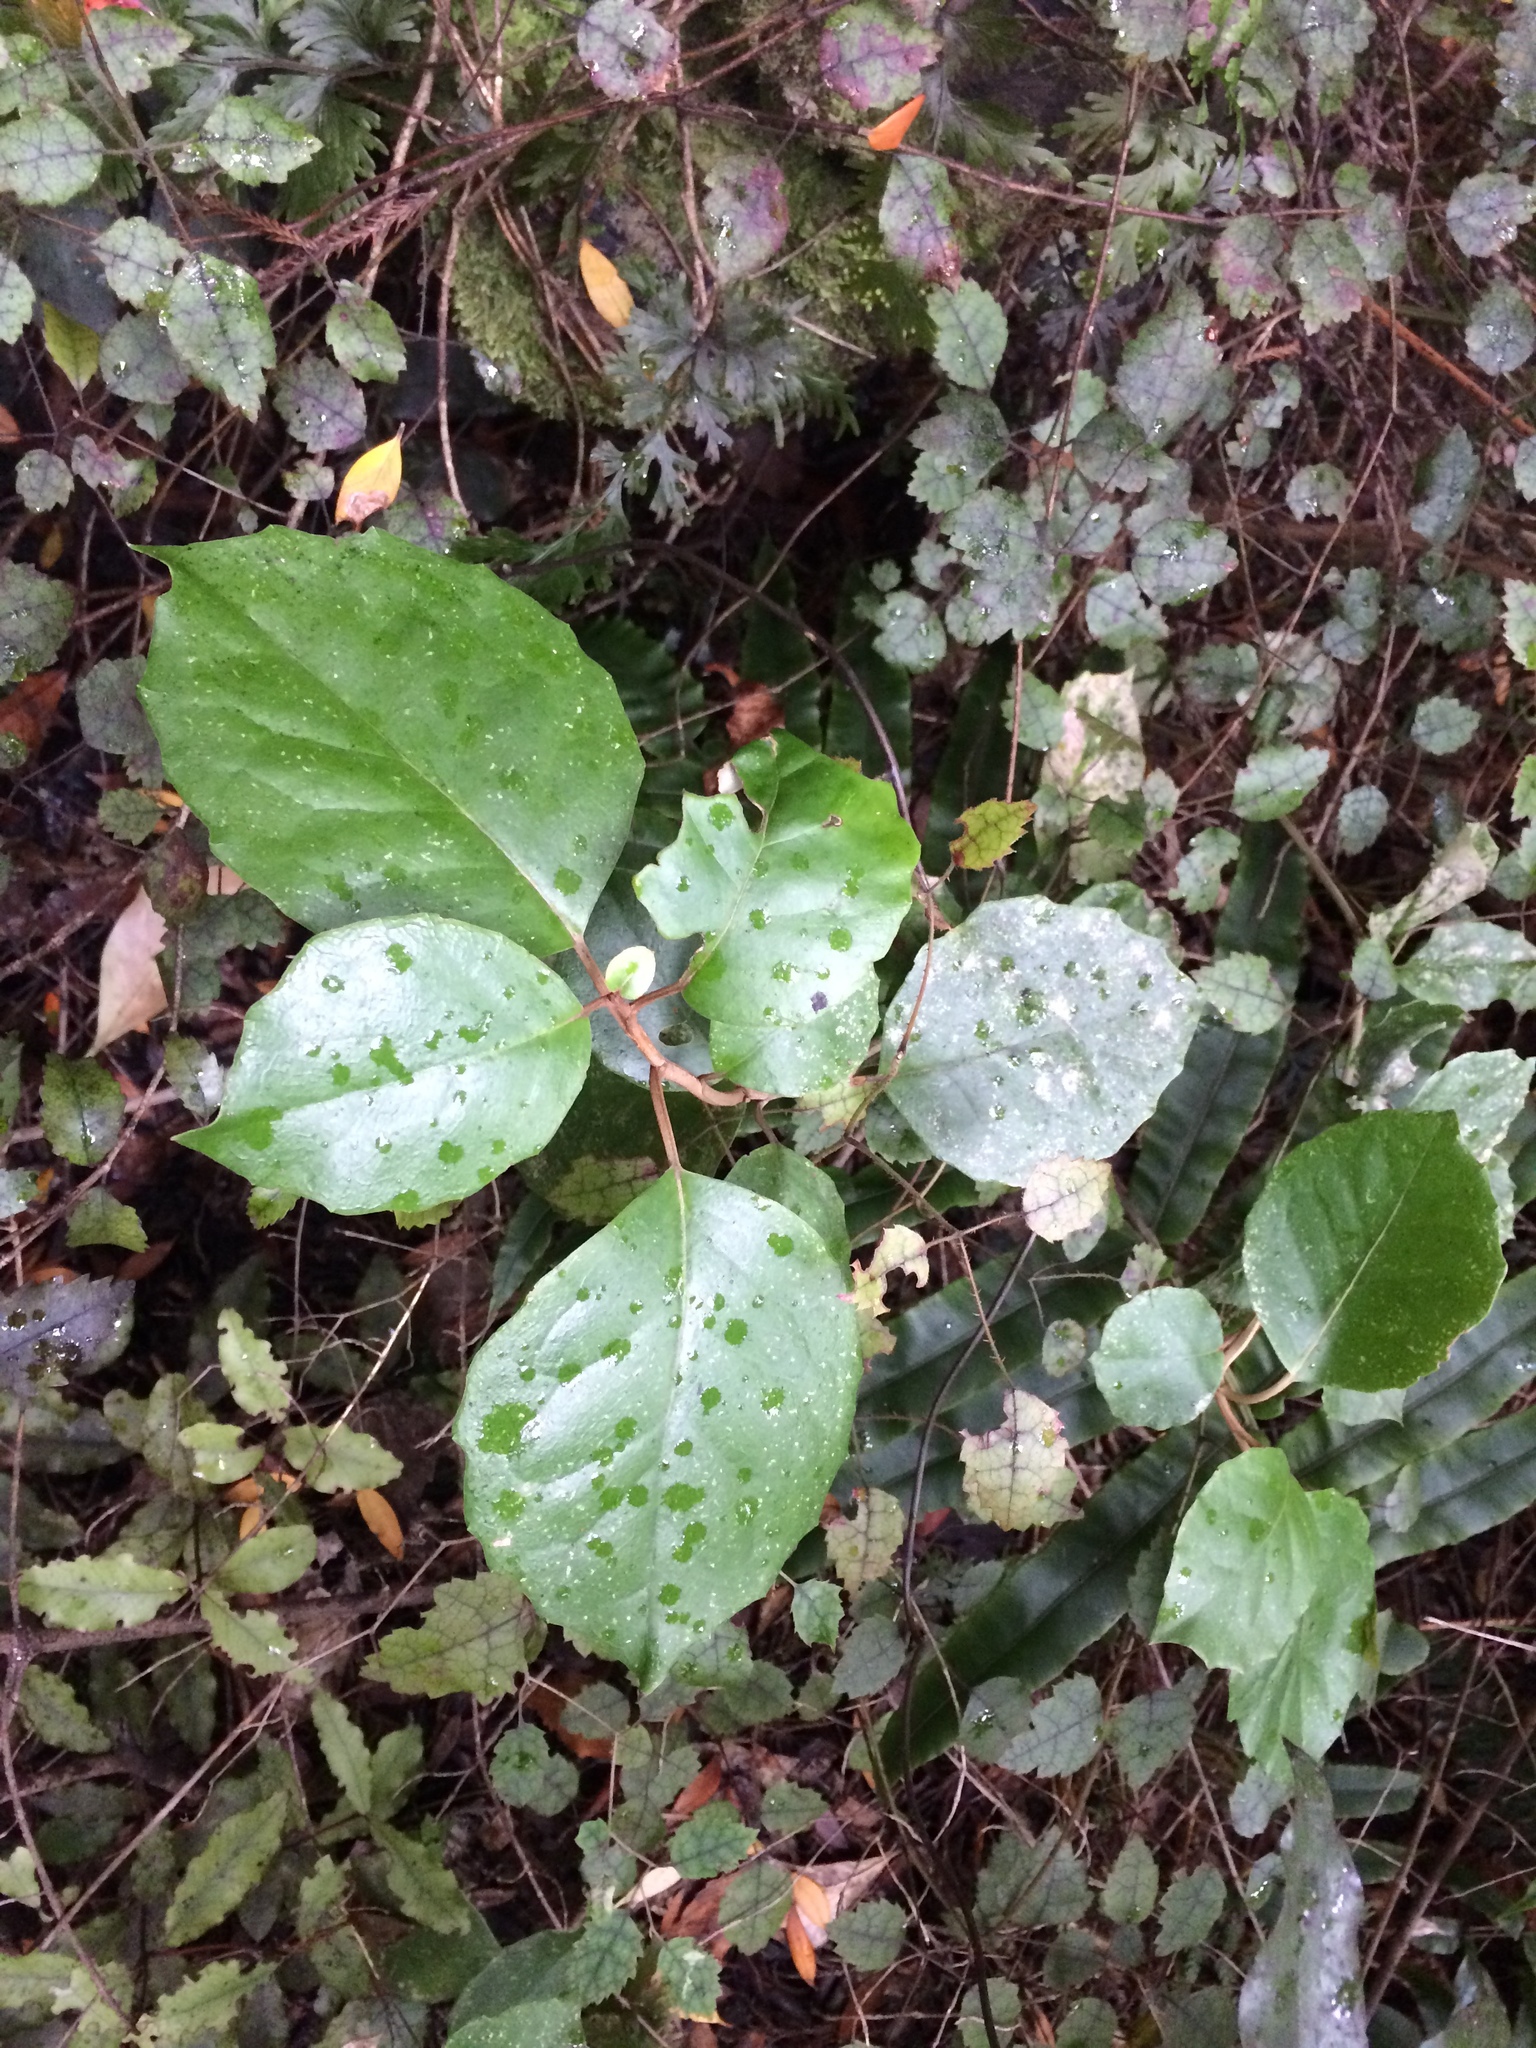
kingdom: Plantae
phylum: Tracheophyta
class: Magnoliopsida
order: Asterales
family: Asteraceae
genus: Olearia
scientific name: Olearia arborescens
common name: Glossy tree daisy
